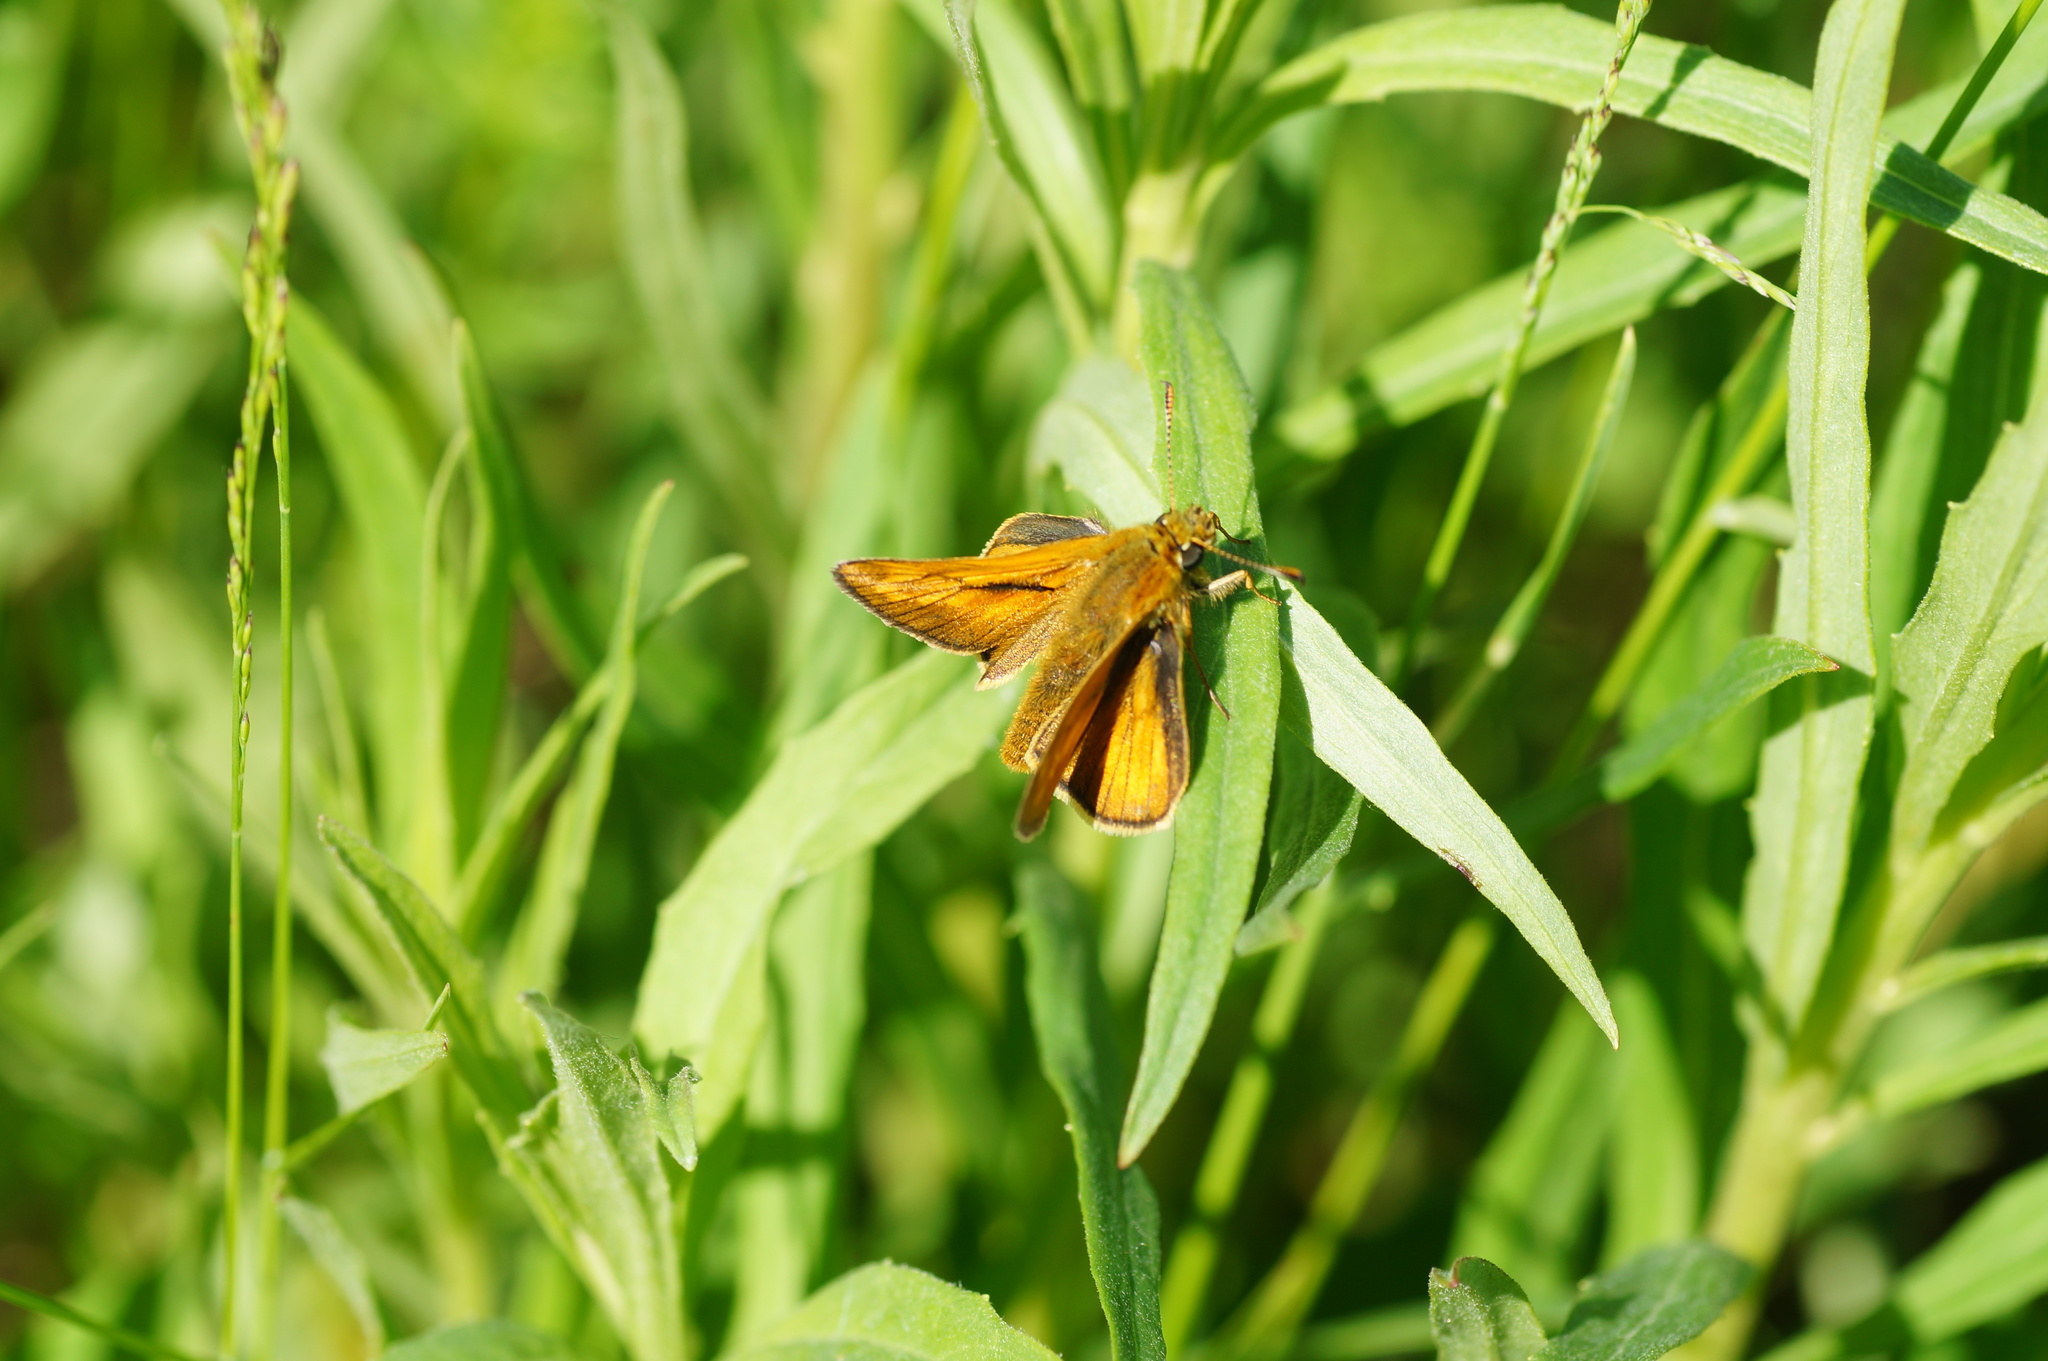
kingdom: Animalia
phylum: Arthropoda
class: Insecta
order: Lepidoptera
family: Hesperiidae
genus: Ochlodes
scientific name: Ochlodes venata
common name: Large skipper
